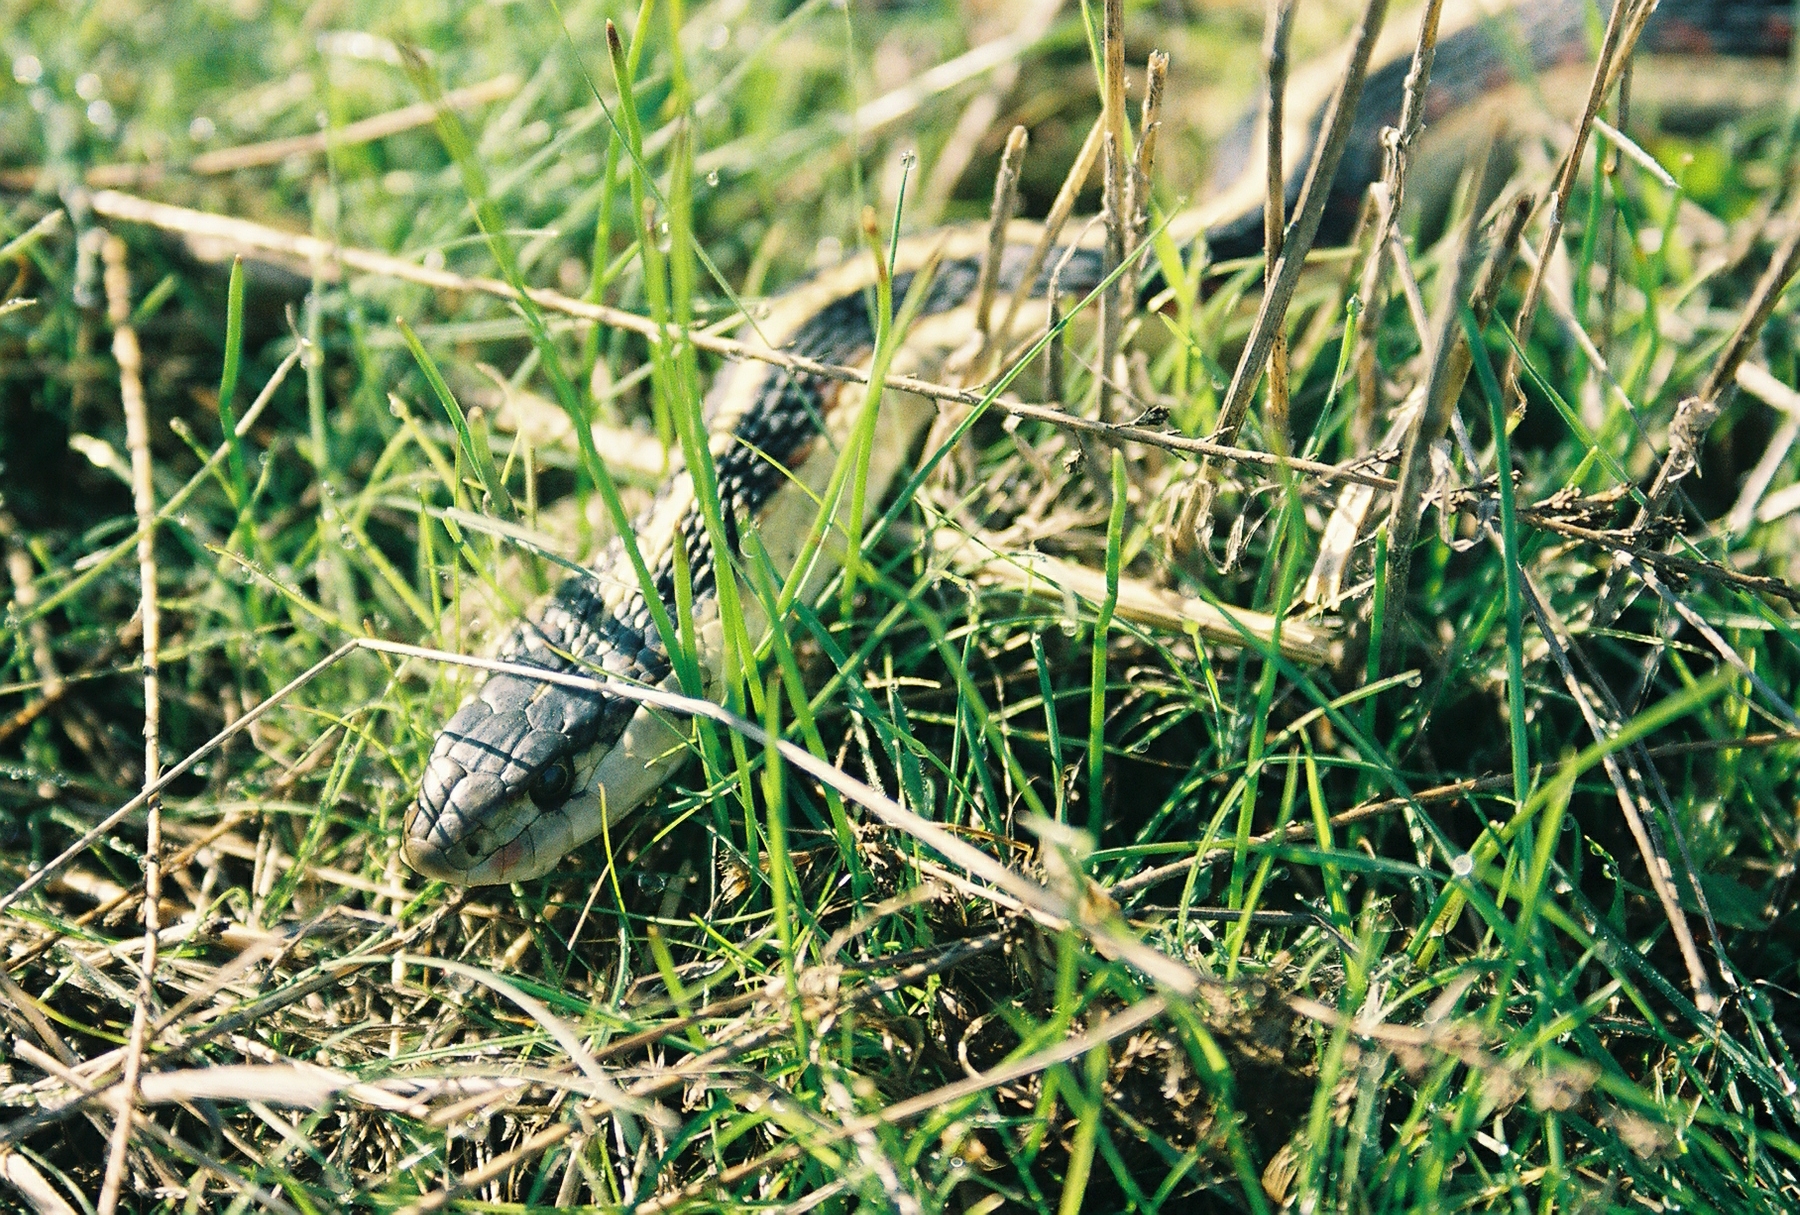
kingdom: Animalia
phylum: Chordata
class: Squamata
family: Colubridae
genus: Thamnophis
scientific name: Thamnophis sirtalis
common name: Common garter snake
